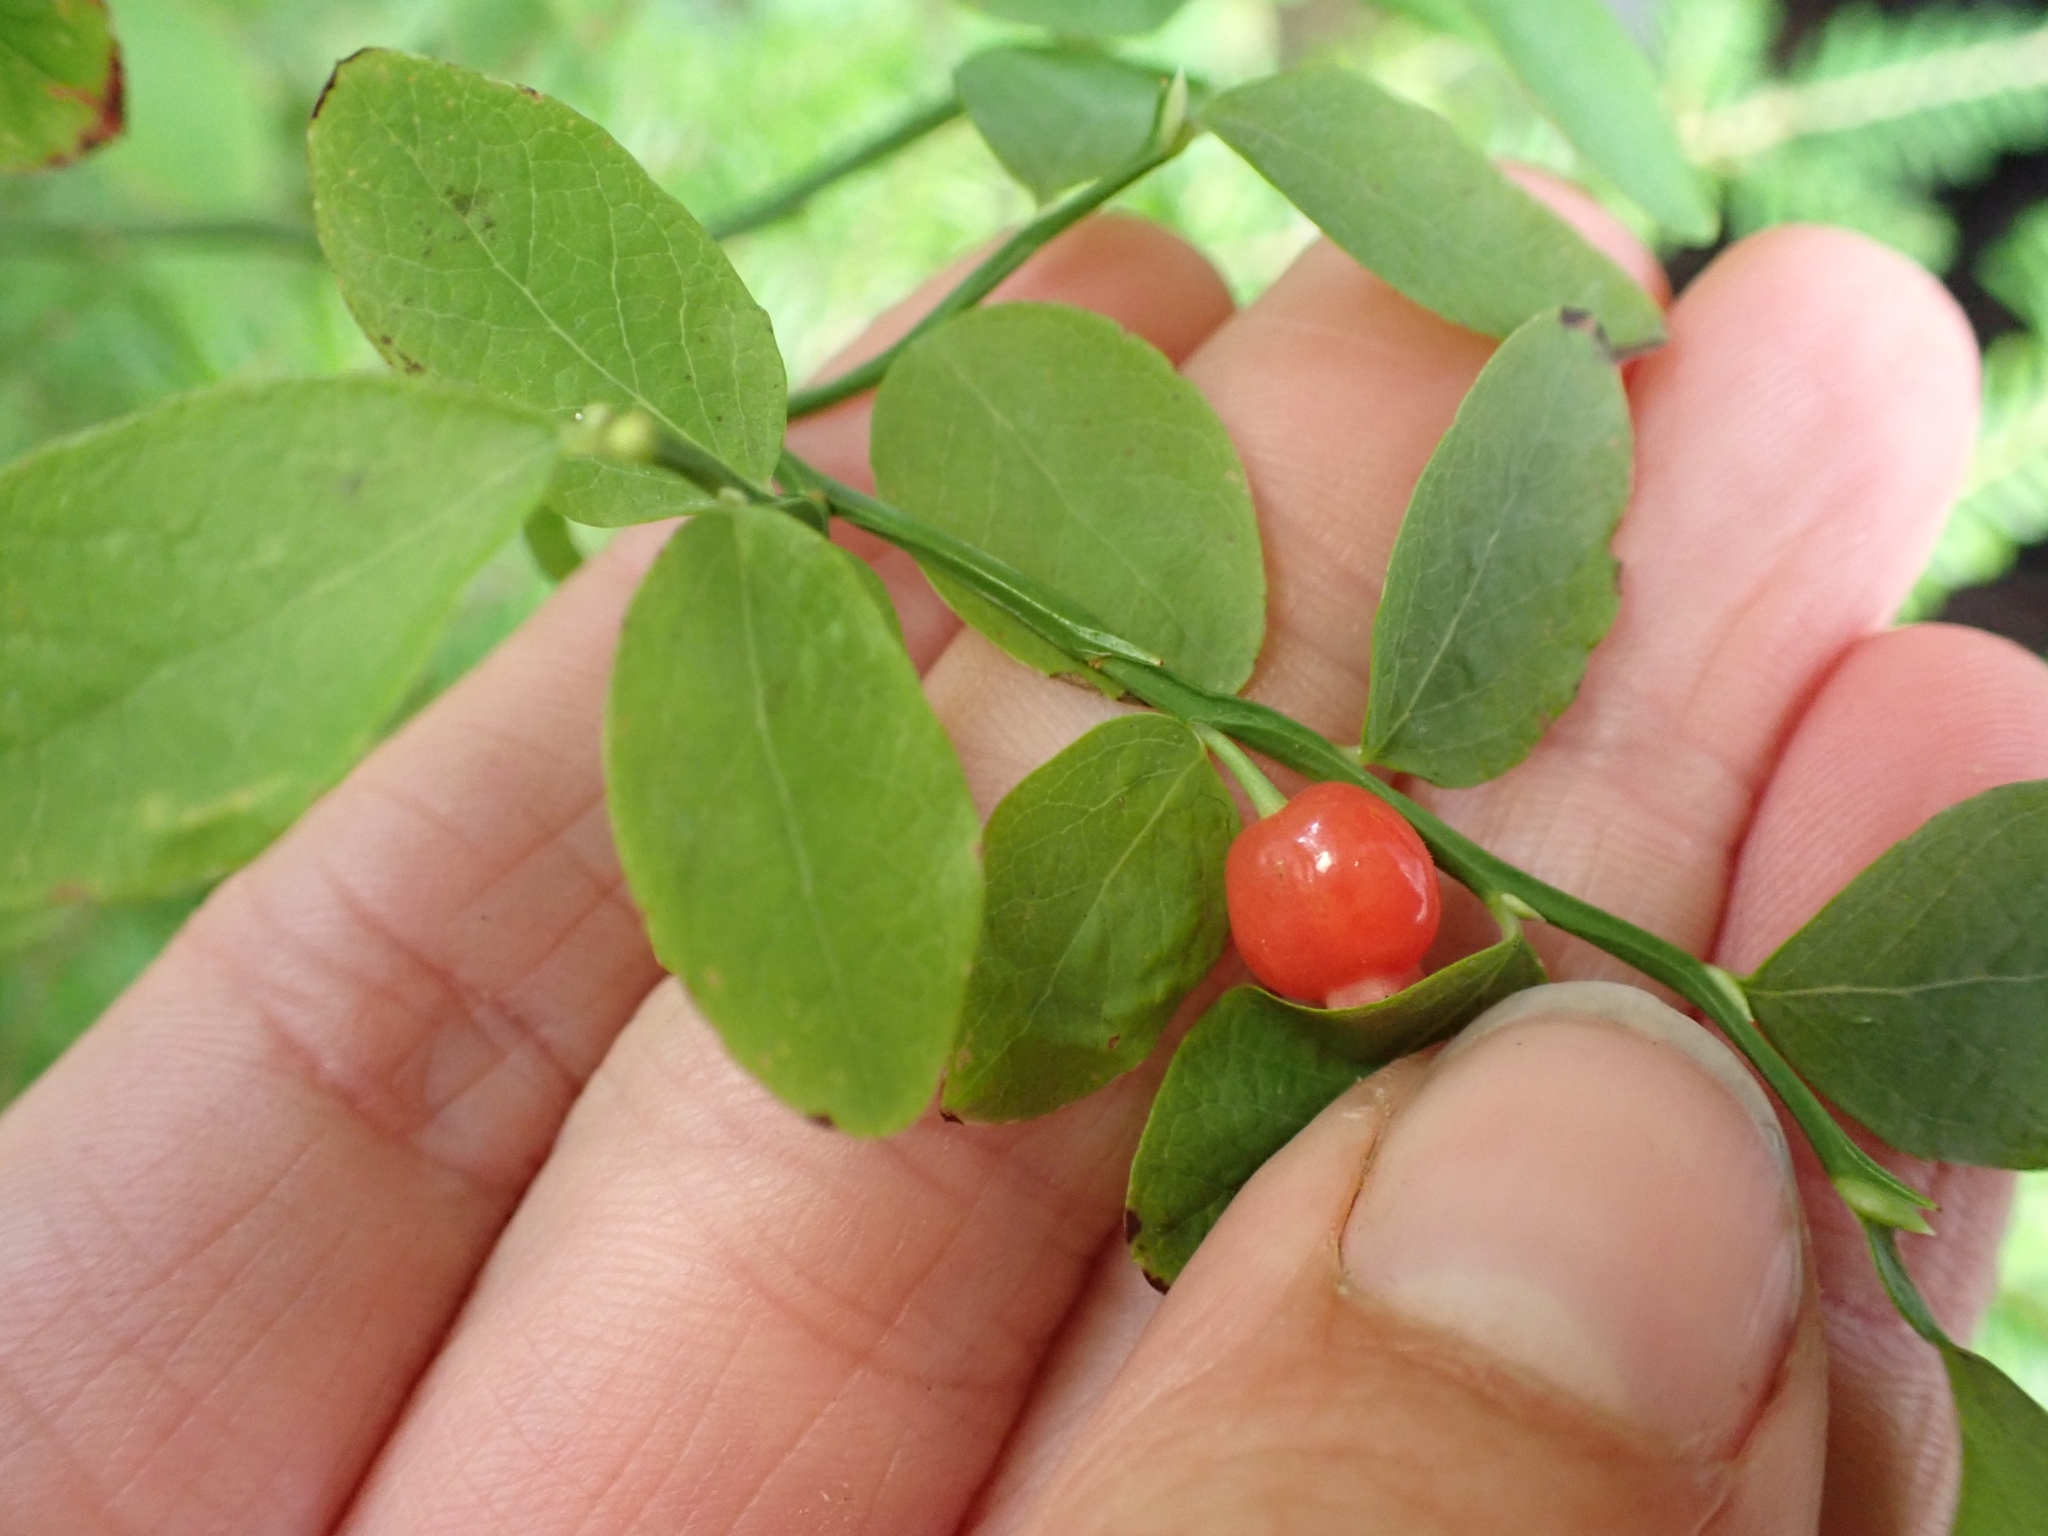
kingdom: Plantae
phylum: Tracheophyta
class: Magnoliopsida
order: Ericales
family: Ericaceae
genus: Vaccinium
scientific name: Vaccinium parvifolium
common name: Red-huckleberry
